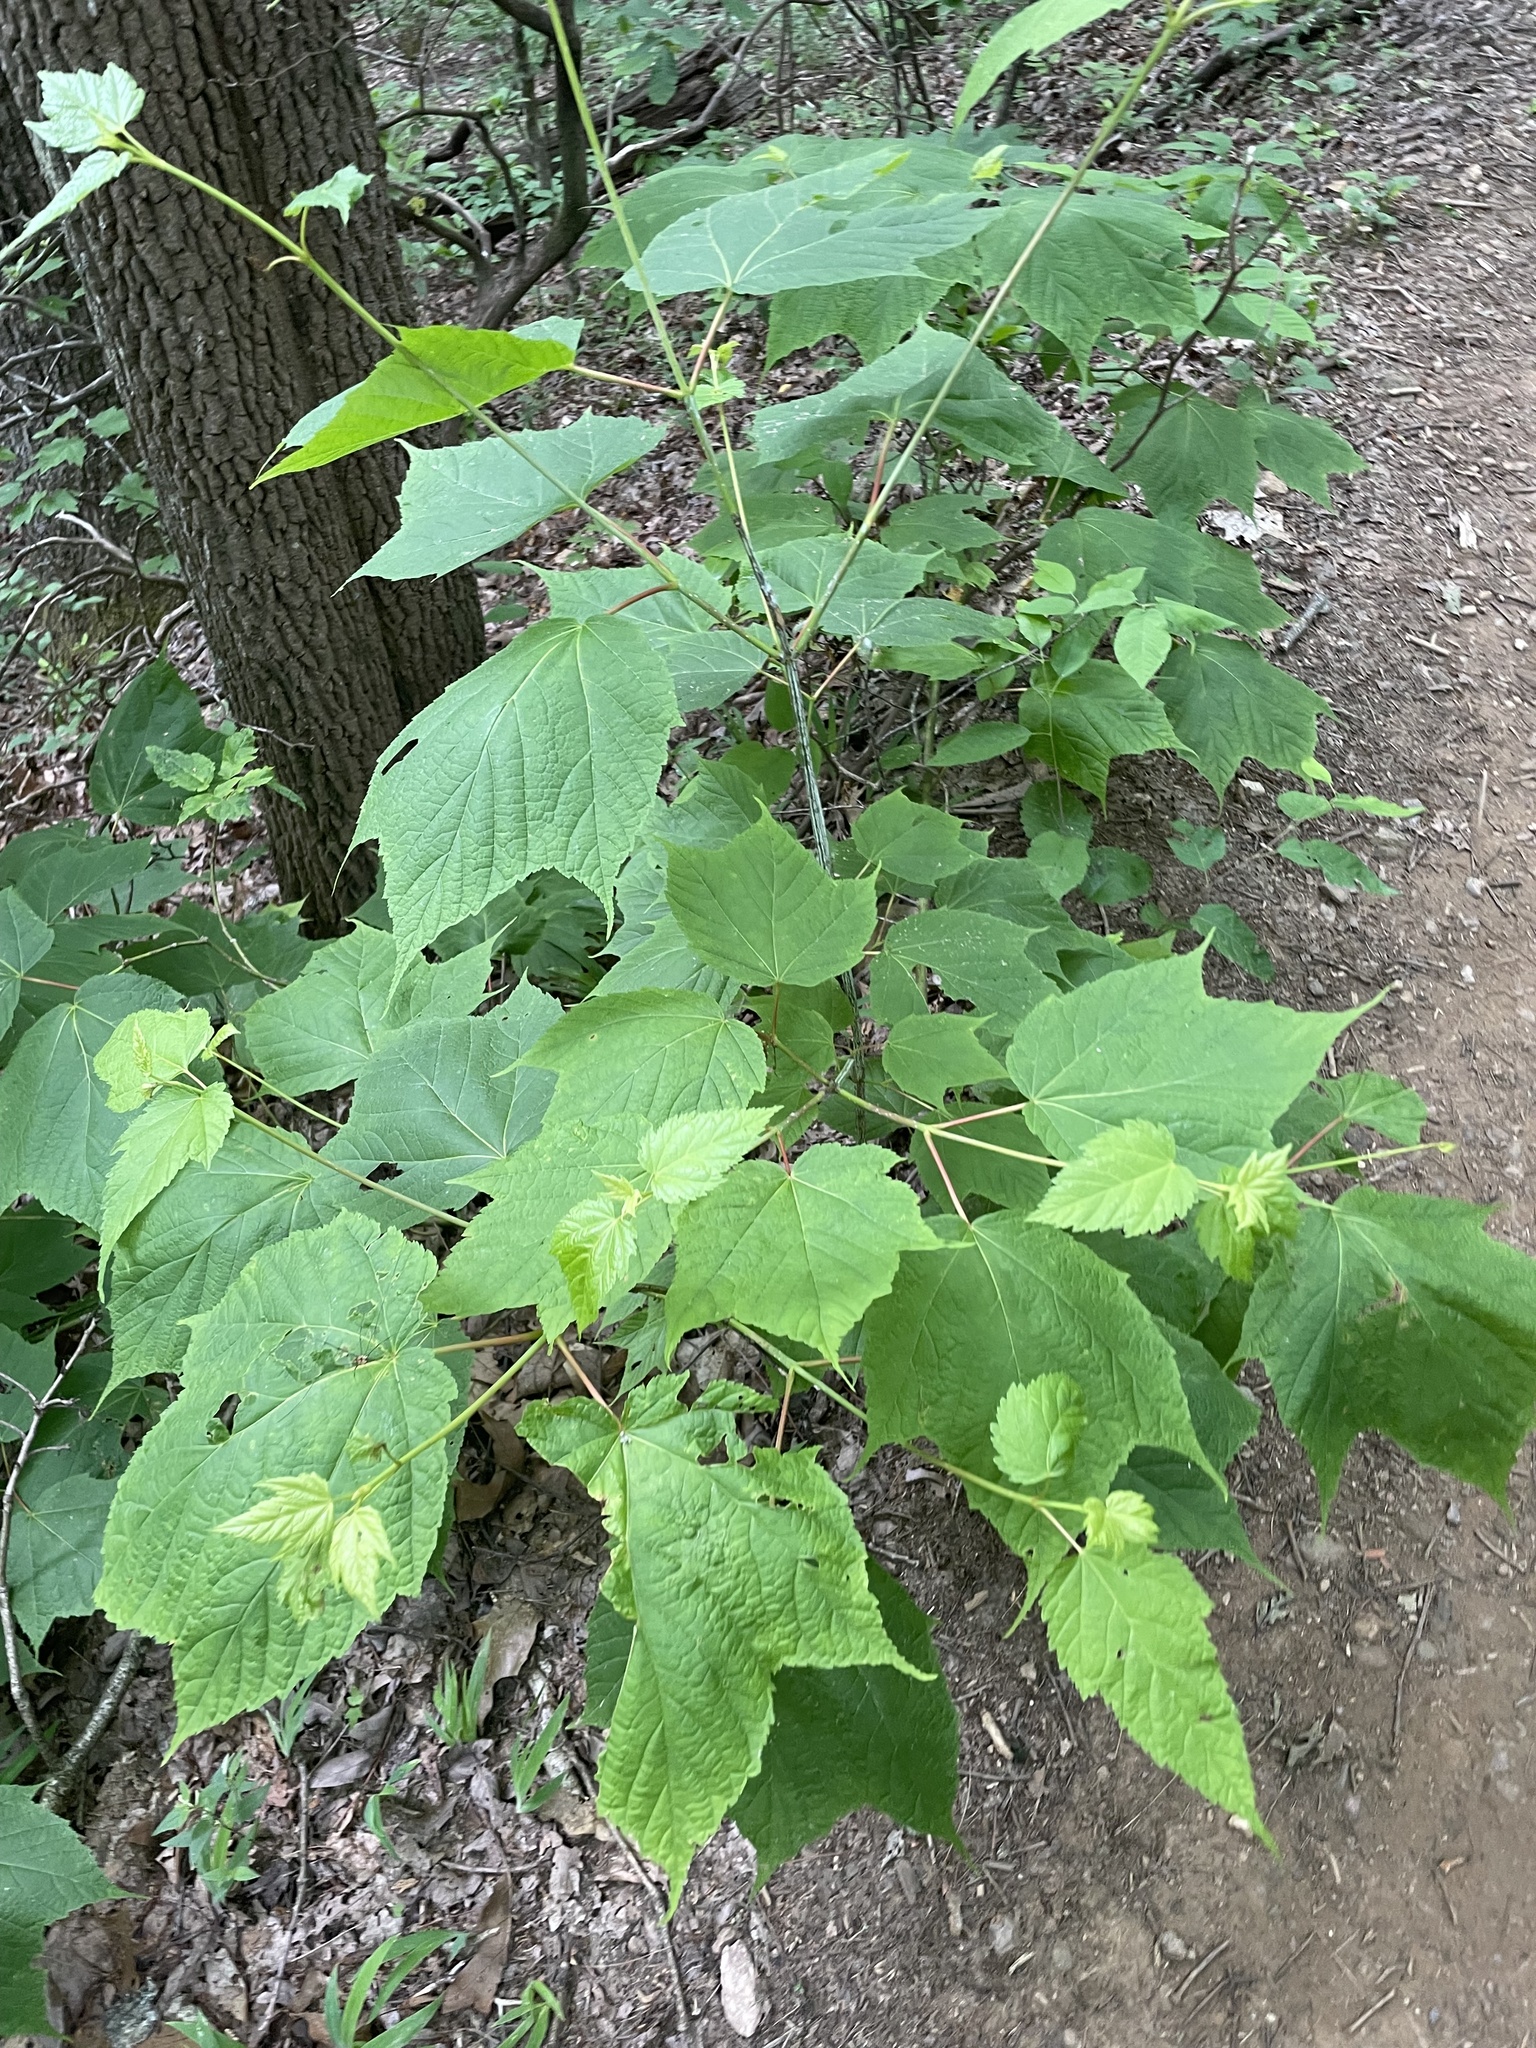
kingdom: Plantae
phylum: Tracheophyta
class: Magnoliopsida
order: Sapindales
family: Sapindaceae
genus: Acer
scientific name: Acer pensylvanicum
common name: Moosewood
